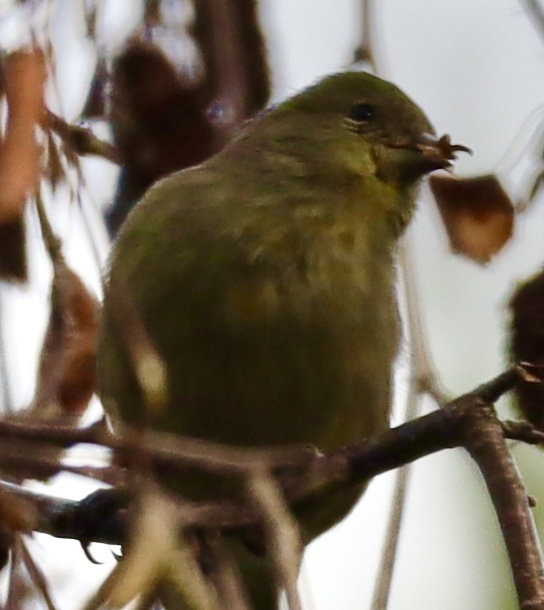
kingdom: Animalia
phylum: Chordata
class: Aves
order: Passeriformes
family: Fringillidae
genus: Spinus
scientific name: Spinus psaltria
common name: Lesser goldfinch
